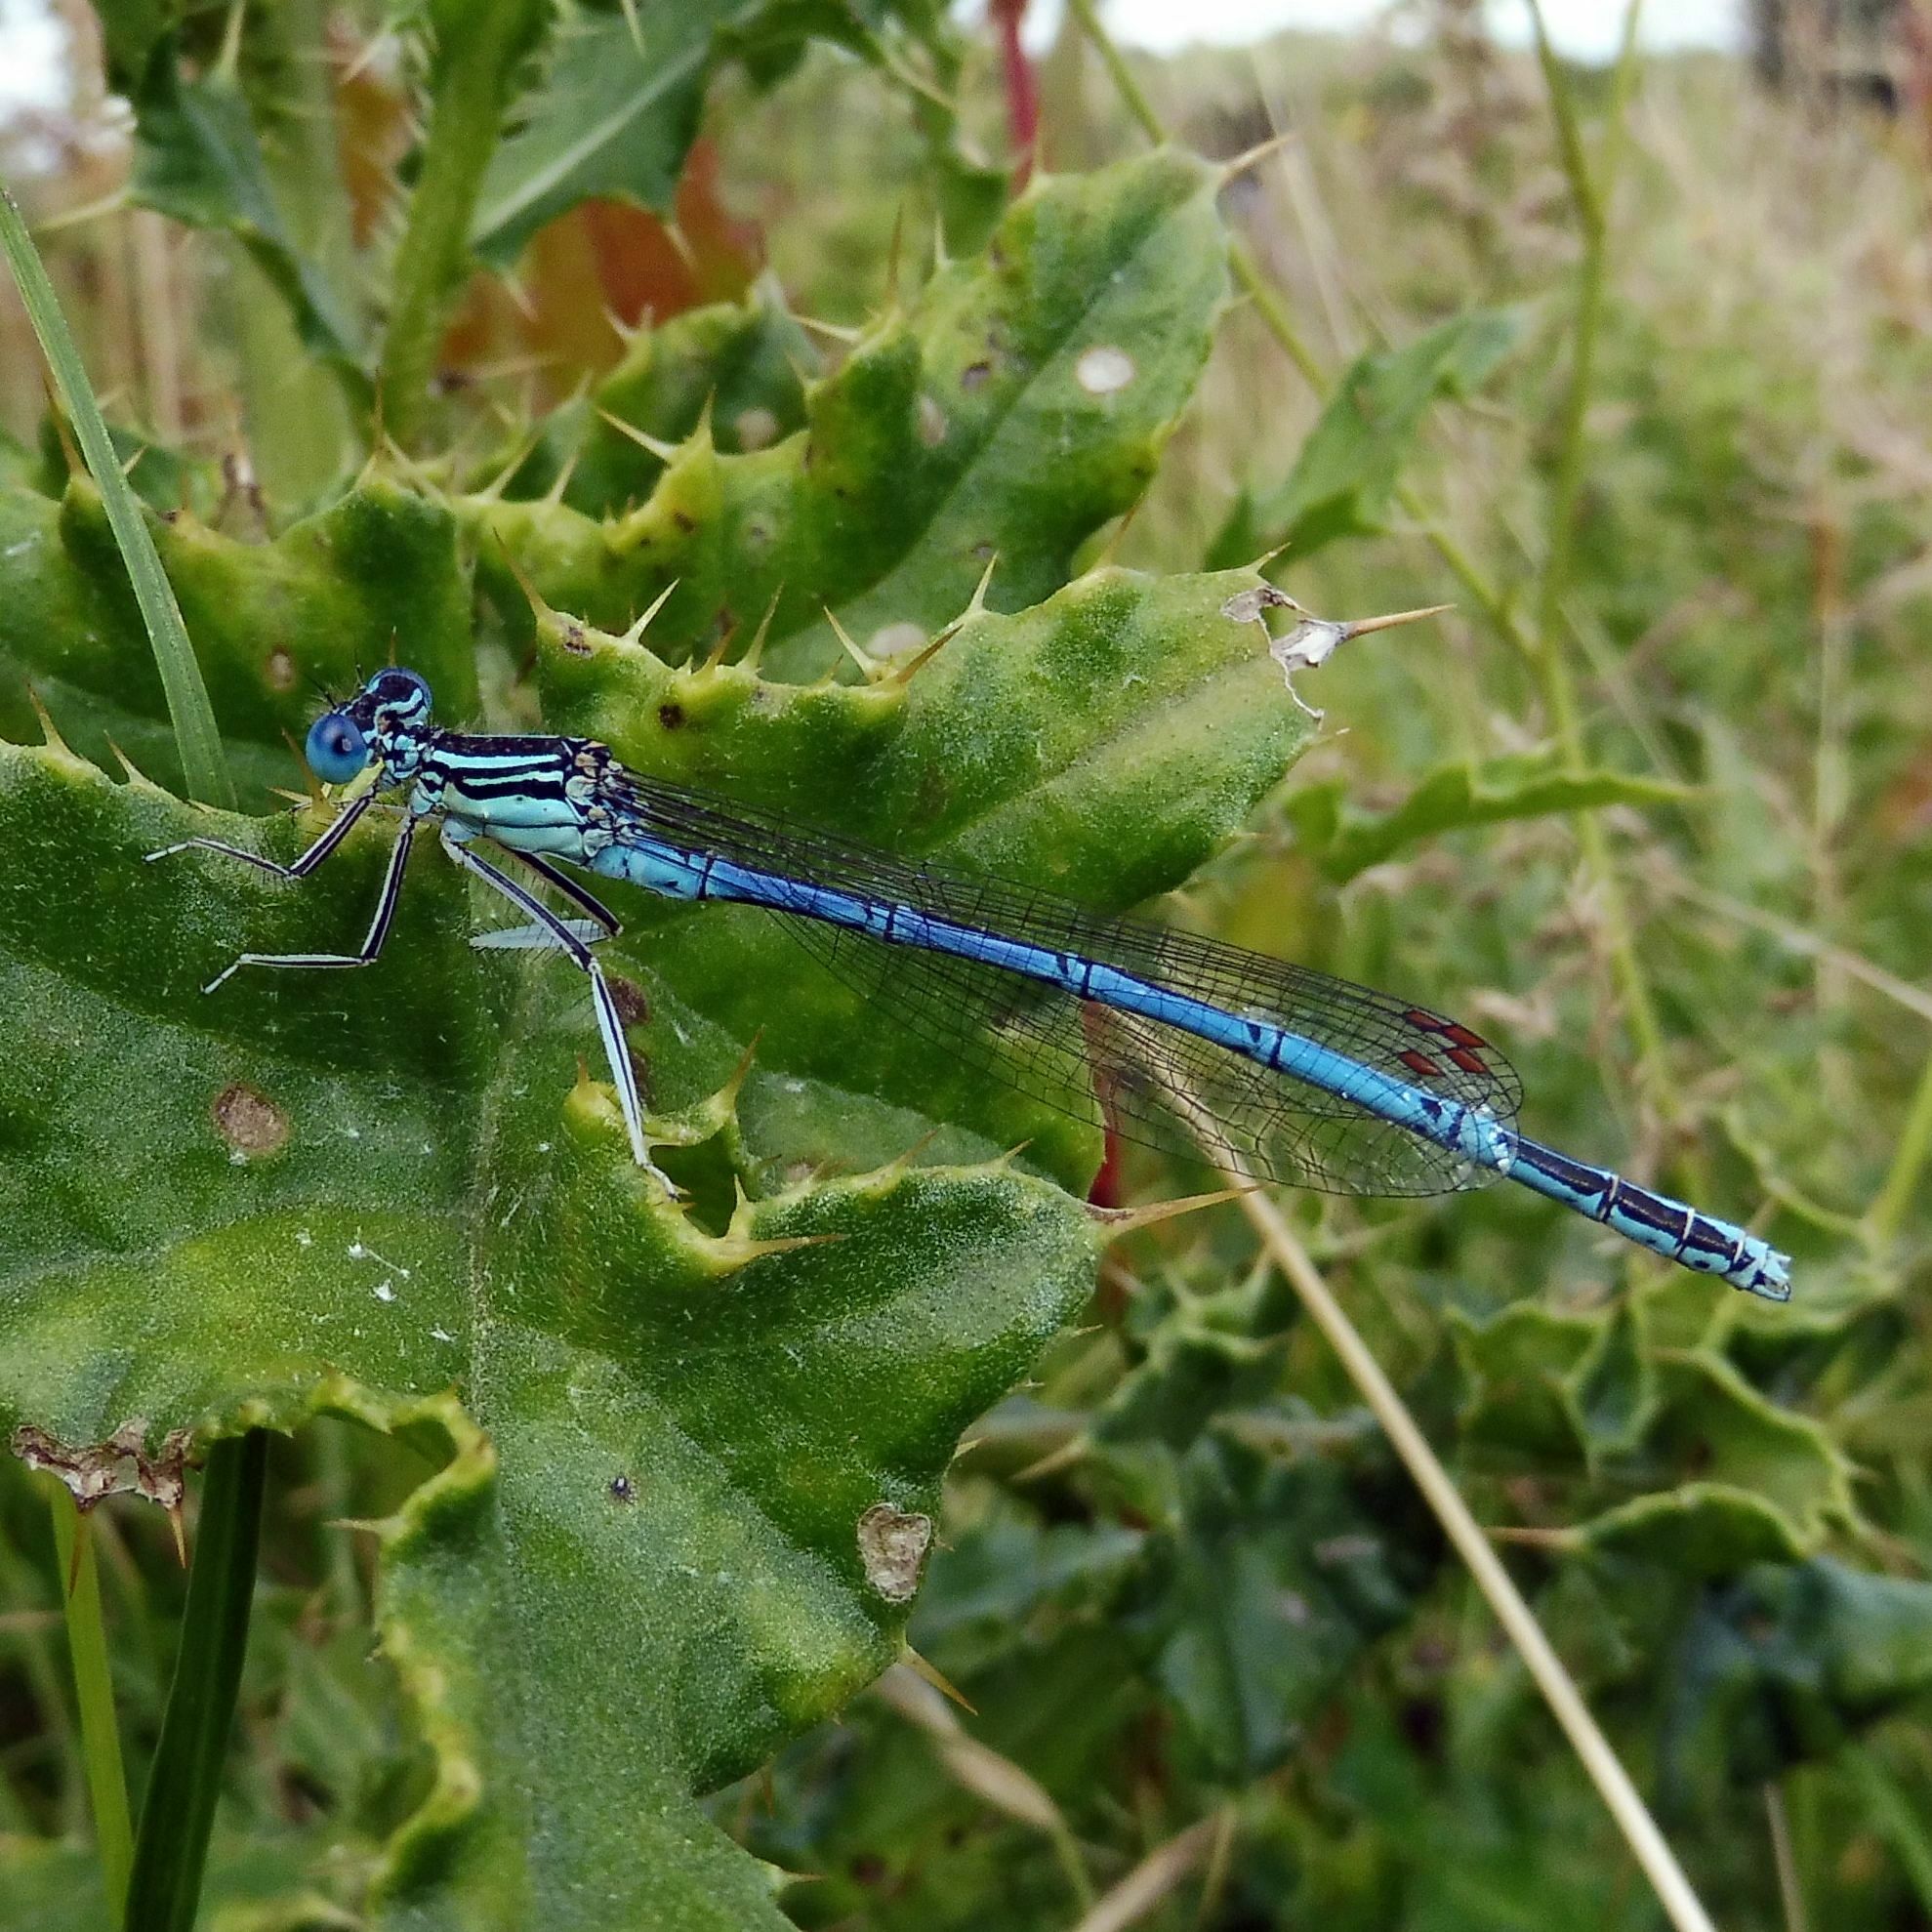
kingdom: Animalia
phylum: Arthropoda
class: Insecta
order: Odonata
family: Platycnemididae
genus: Platycnemis
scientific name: Platycnemis pennipes
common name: White-legged damselfly
